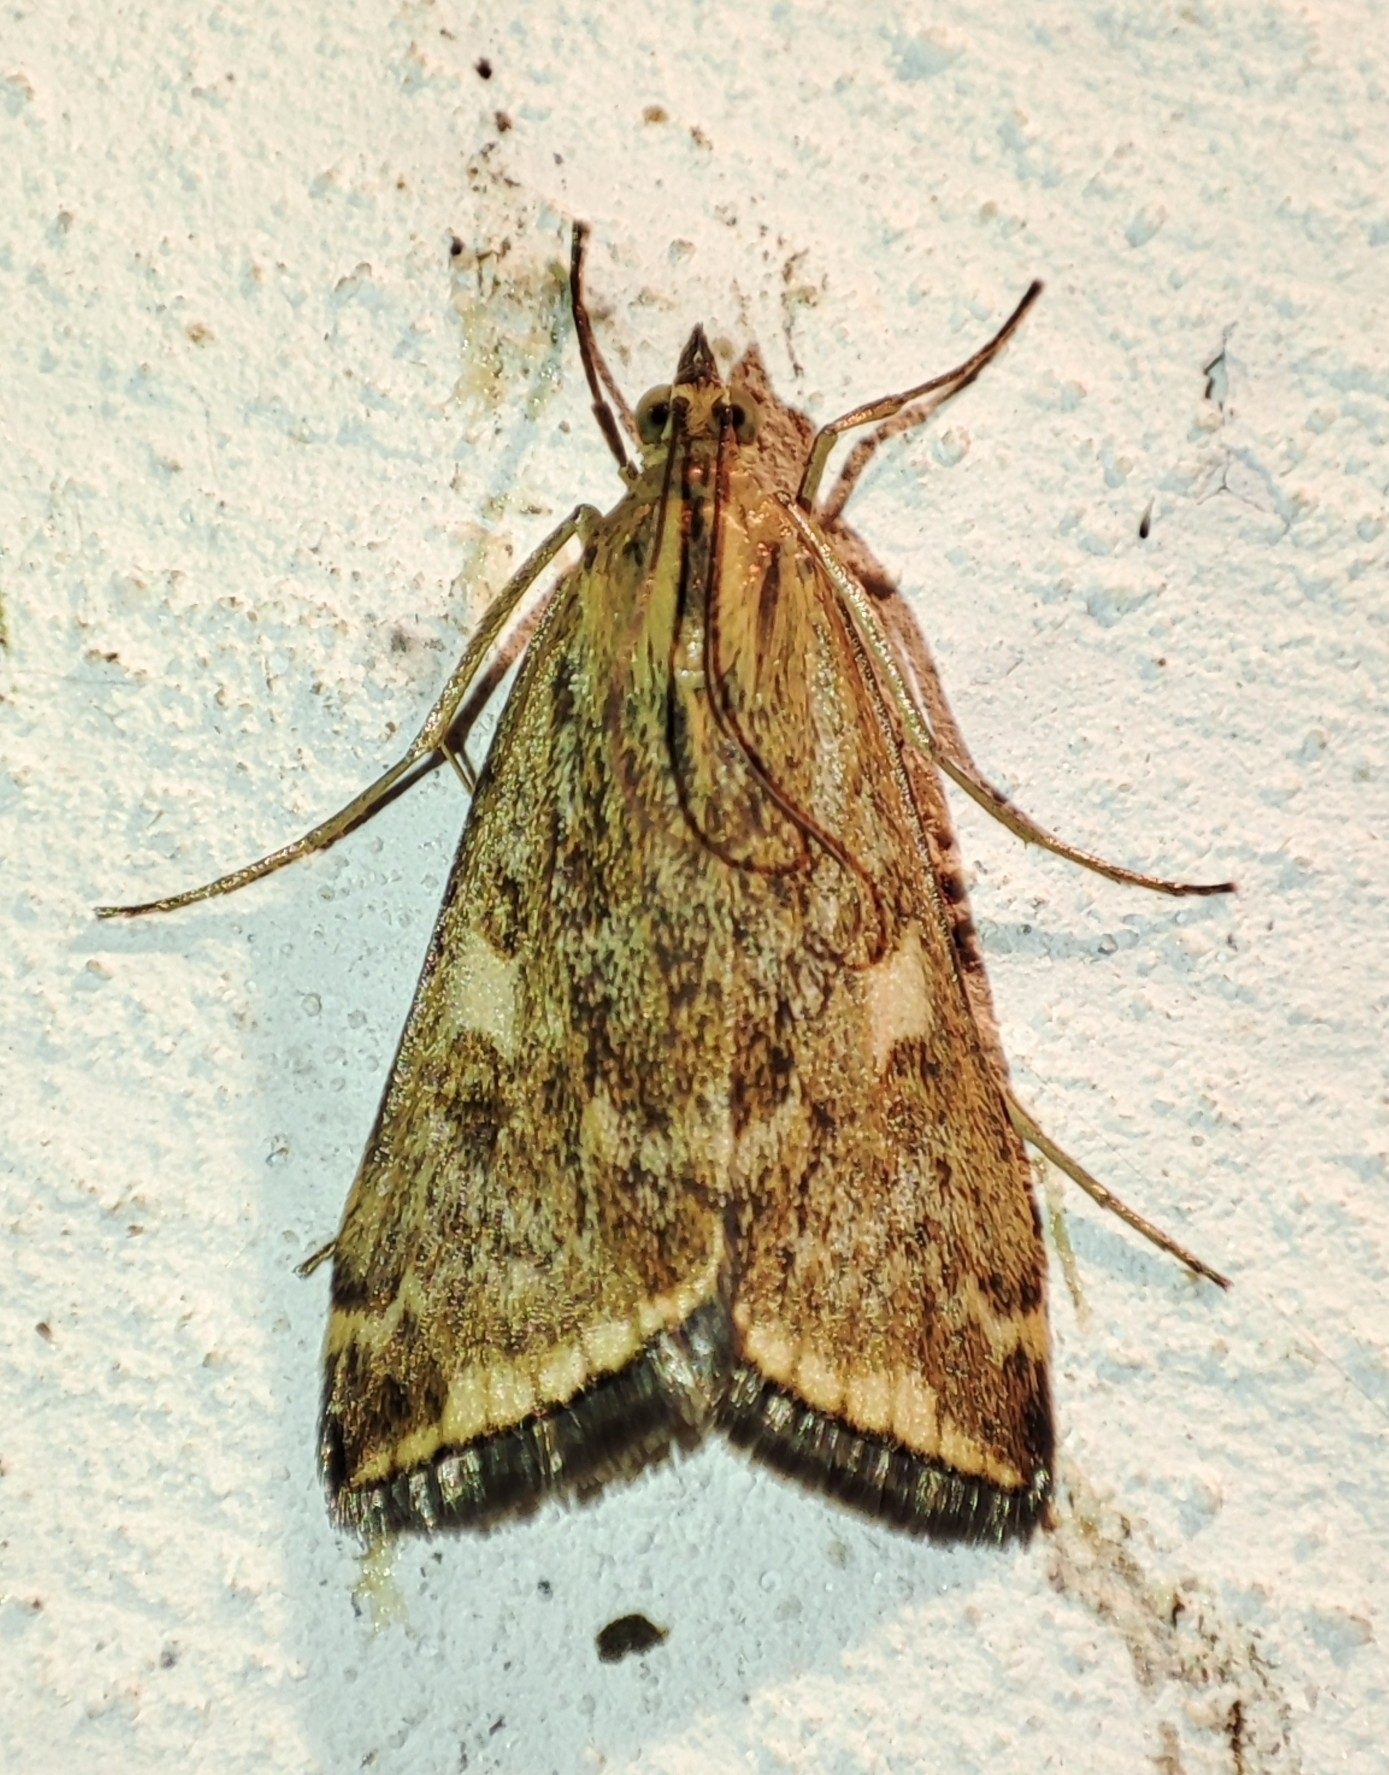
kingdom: Animalia
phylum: Arthropoda
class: Insecta
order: Lepidoptera
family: Crambidae
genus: Loxostege
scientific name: Loxostege sticticalis
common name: Crambid moth
